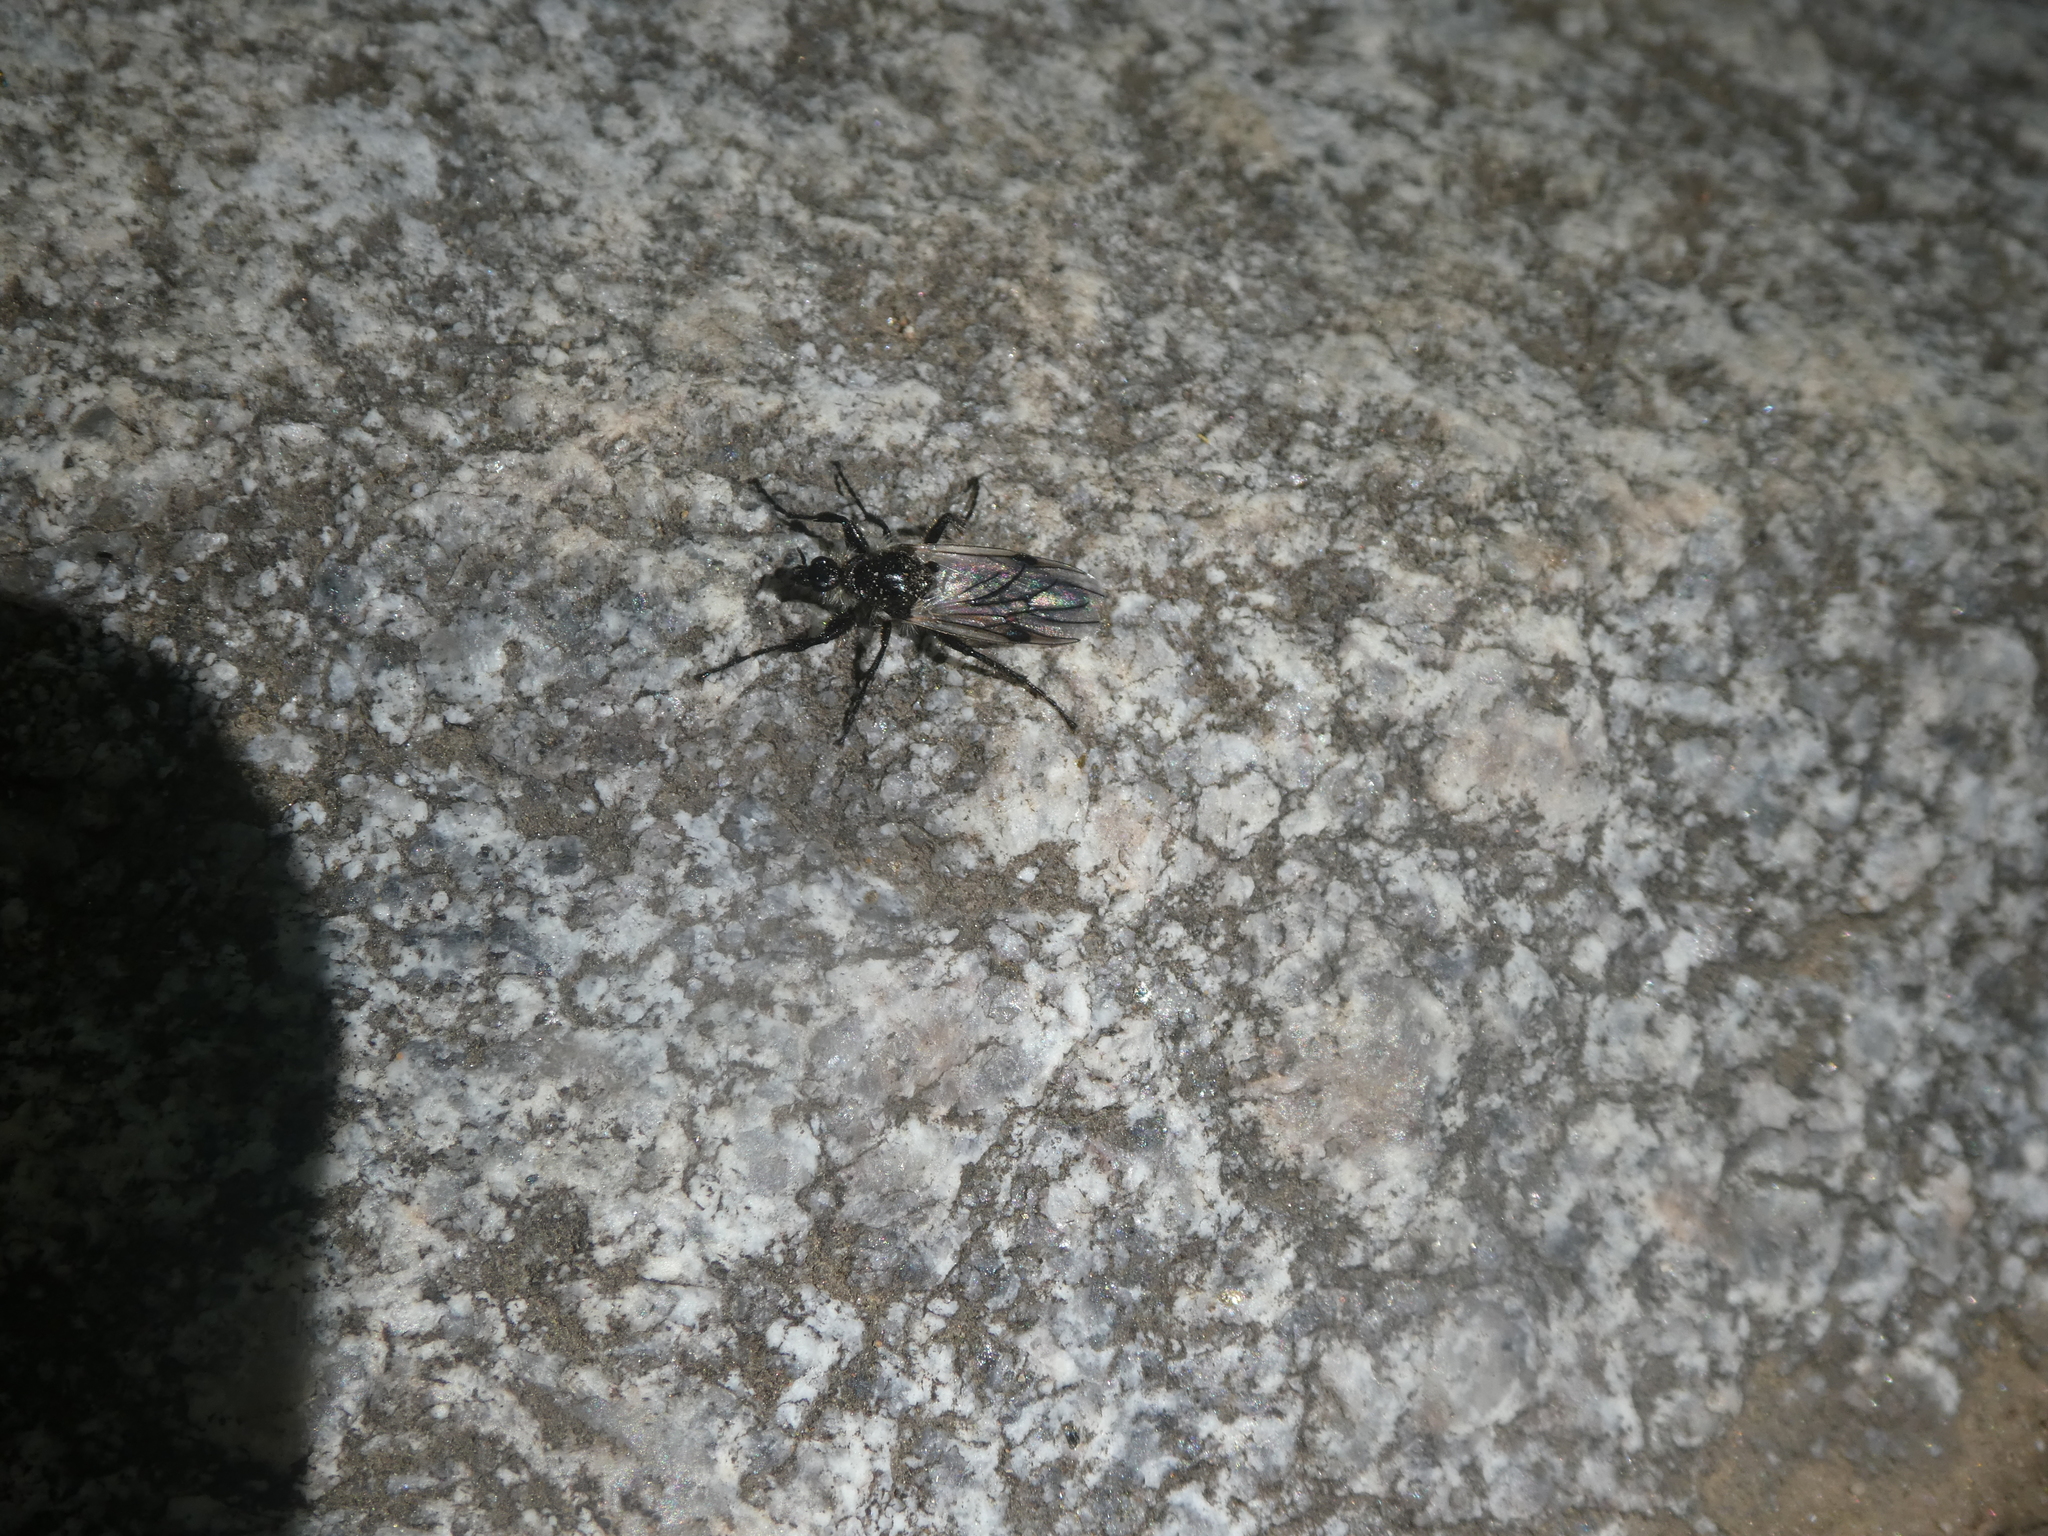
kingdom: Animalia
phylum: Arthropoda
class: Insecta
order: Diptera
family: Bibionidae
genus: Bibio
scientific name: Bibio albipennis
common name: White-winged march fly
